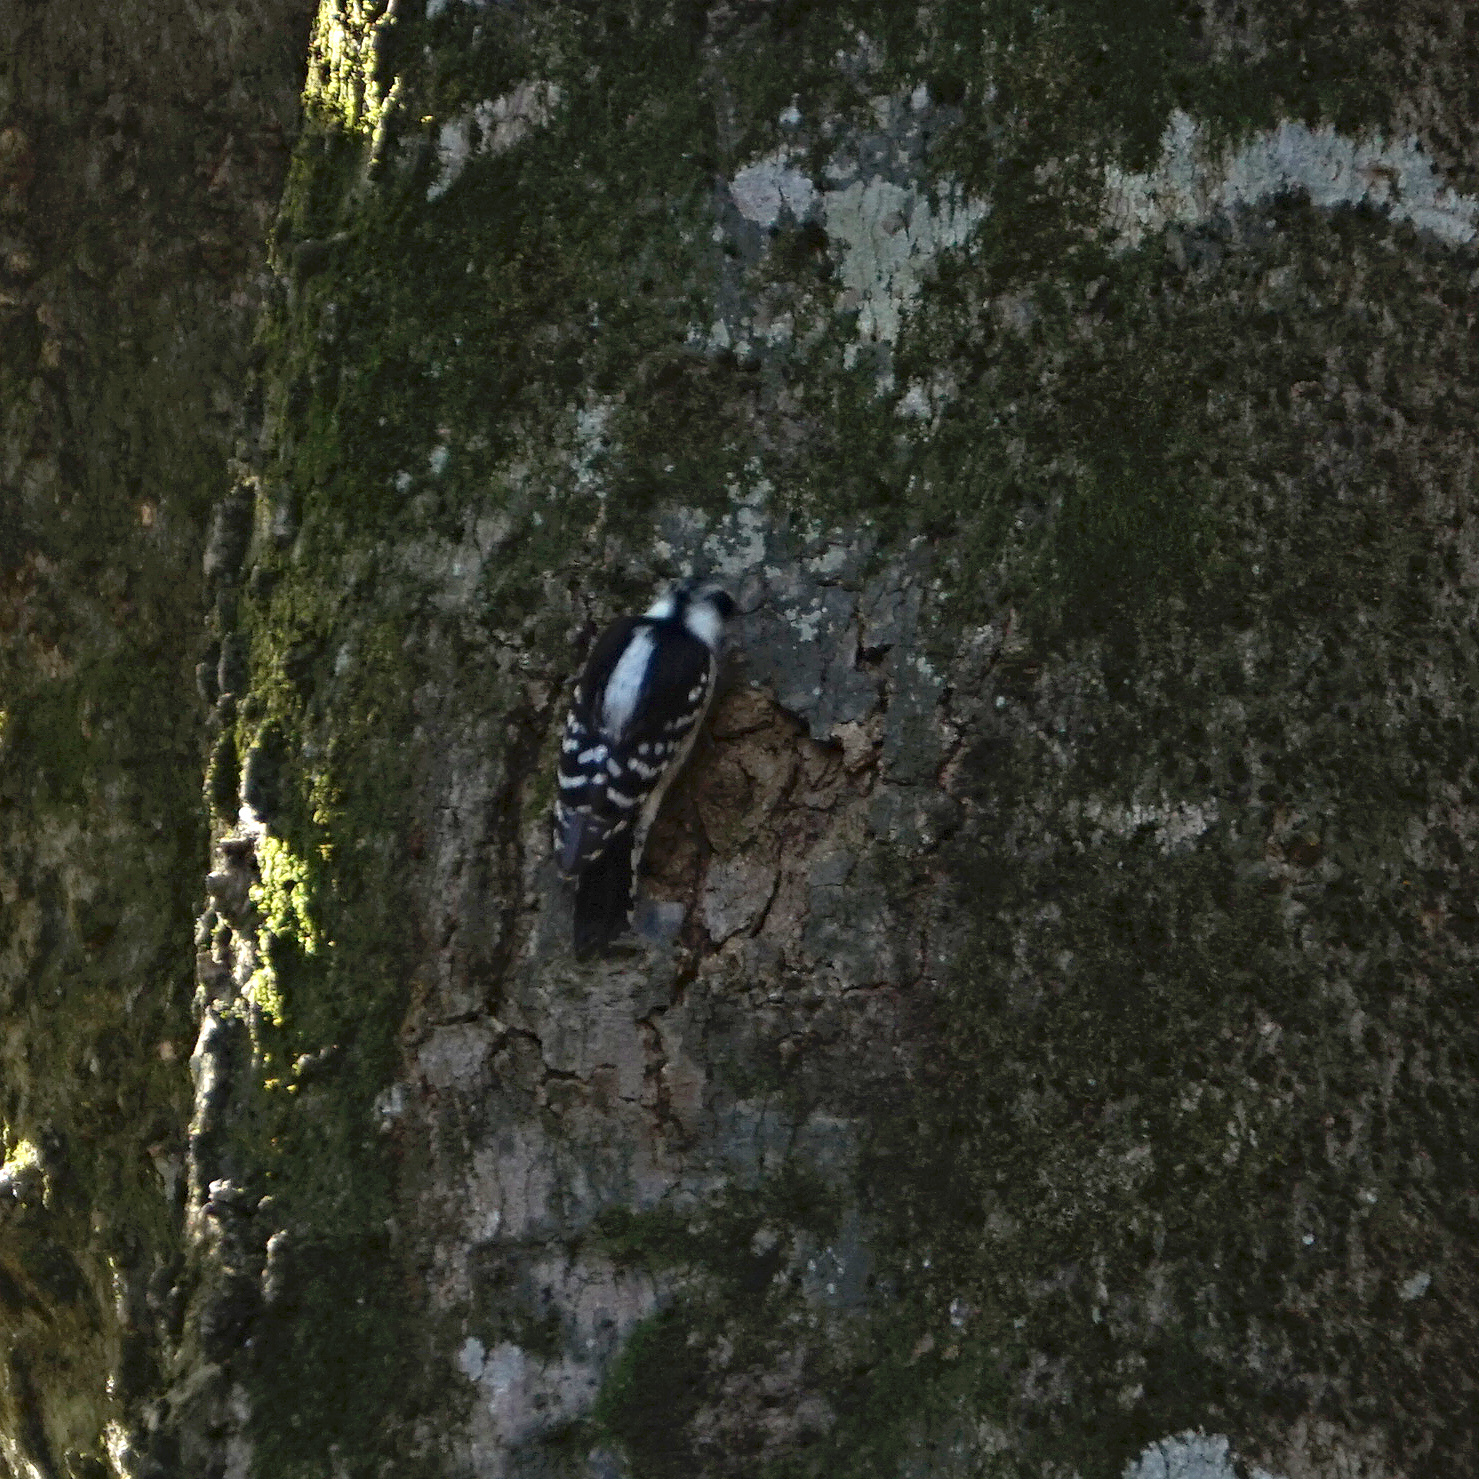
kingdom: Animalia
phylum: Chordata
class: Aves
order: Piciformes
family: Picidae
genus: Dryobates
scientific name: Dryobates pubescens
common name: Downy woodpecker
